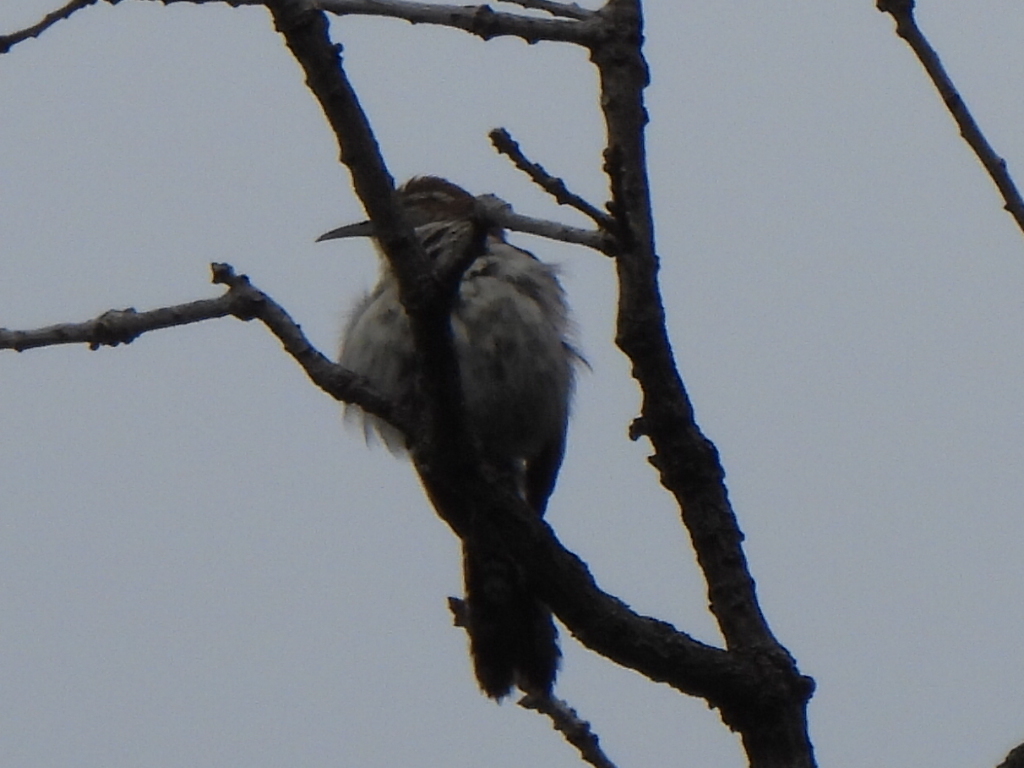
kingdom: Animalia
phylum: Chordata
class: Aves
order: Passeriformes
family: Troglodytidae
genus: Thryomanes
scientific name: Thryomanes bewickii
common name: Bewick's wren
